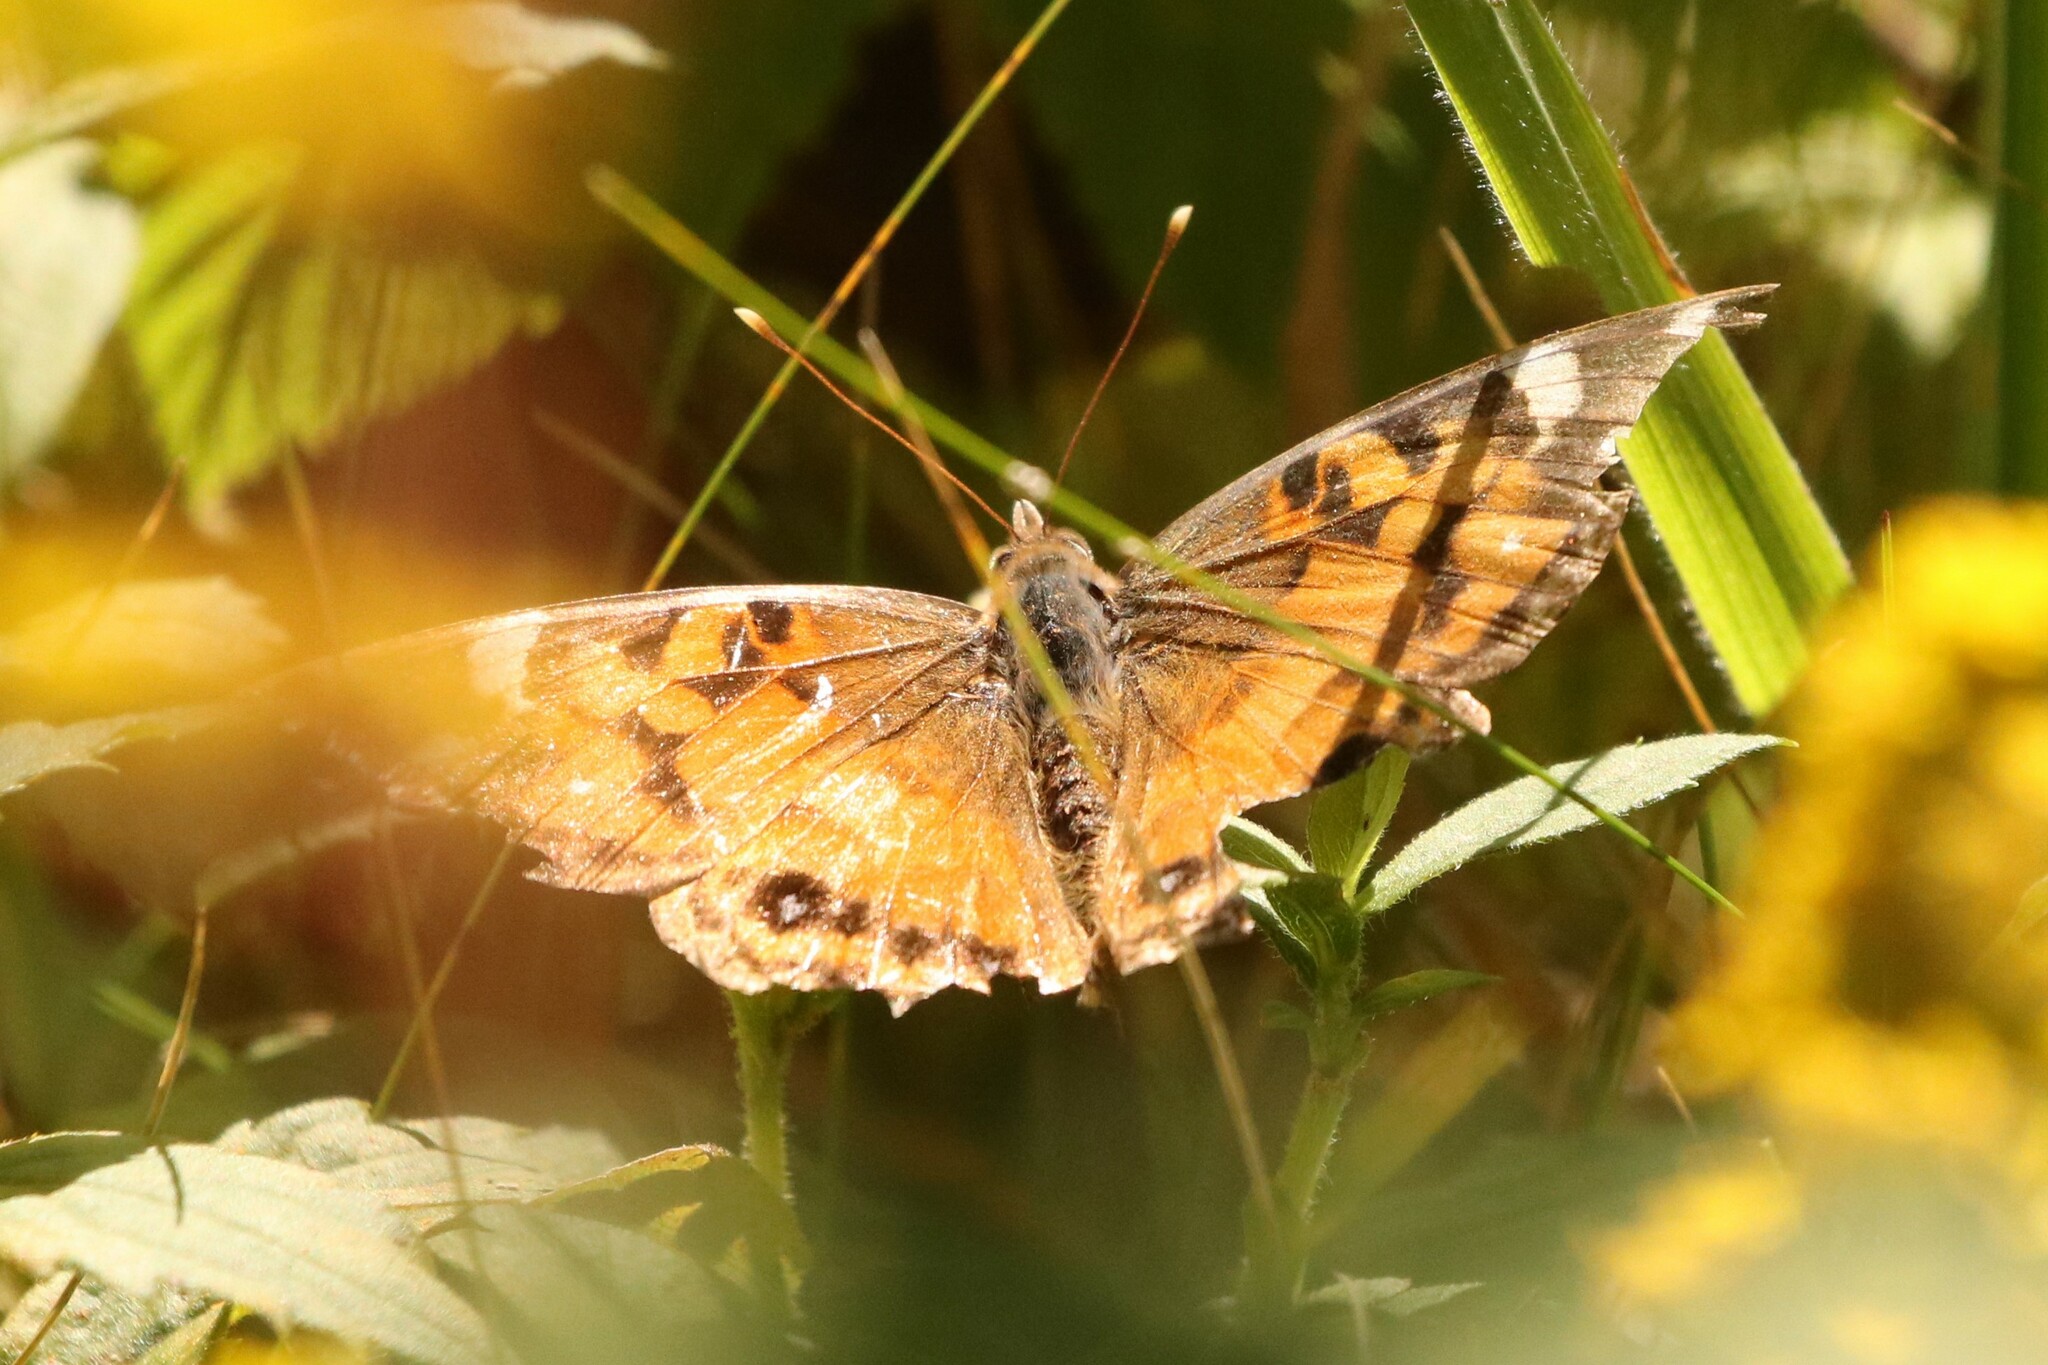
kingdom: Animalia
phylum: Arthropoda
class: Insecta
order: Lepidoptera
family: Nymphalidae
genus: Vanessa
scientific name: Vanessa virginiensis
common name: American lady
